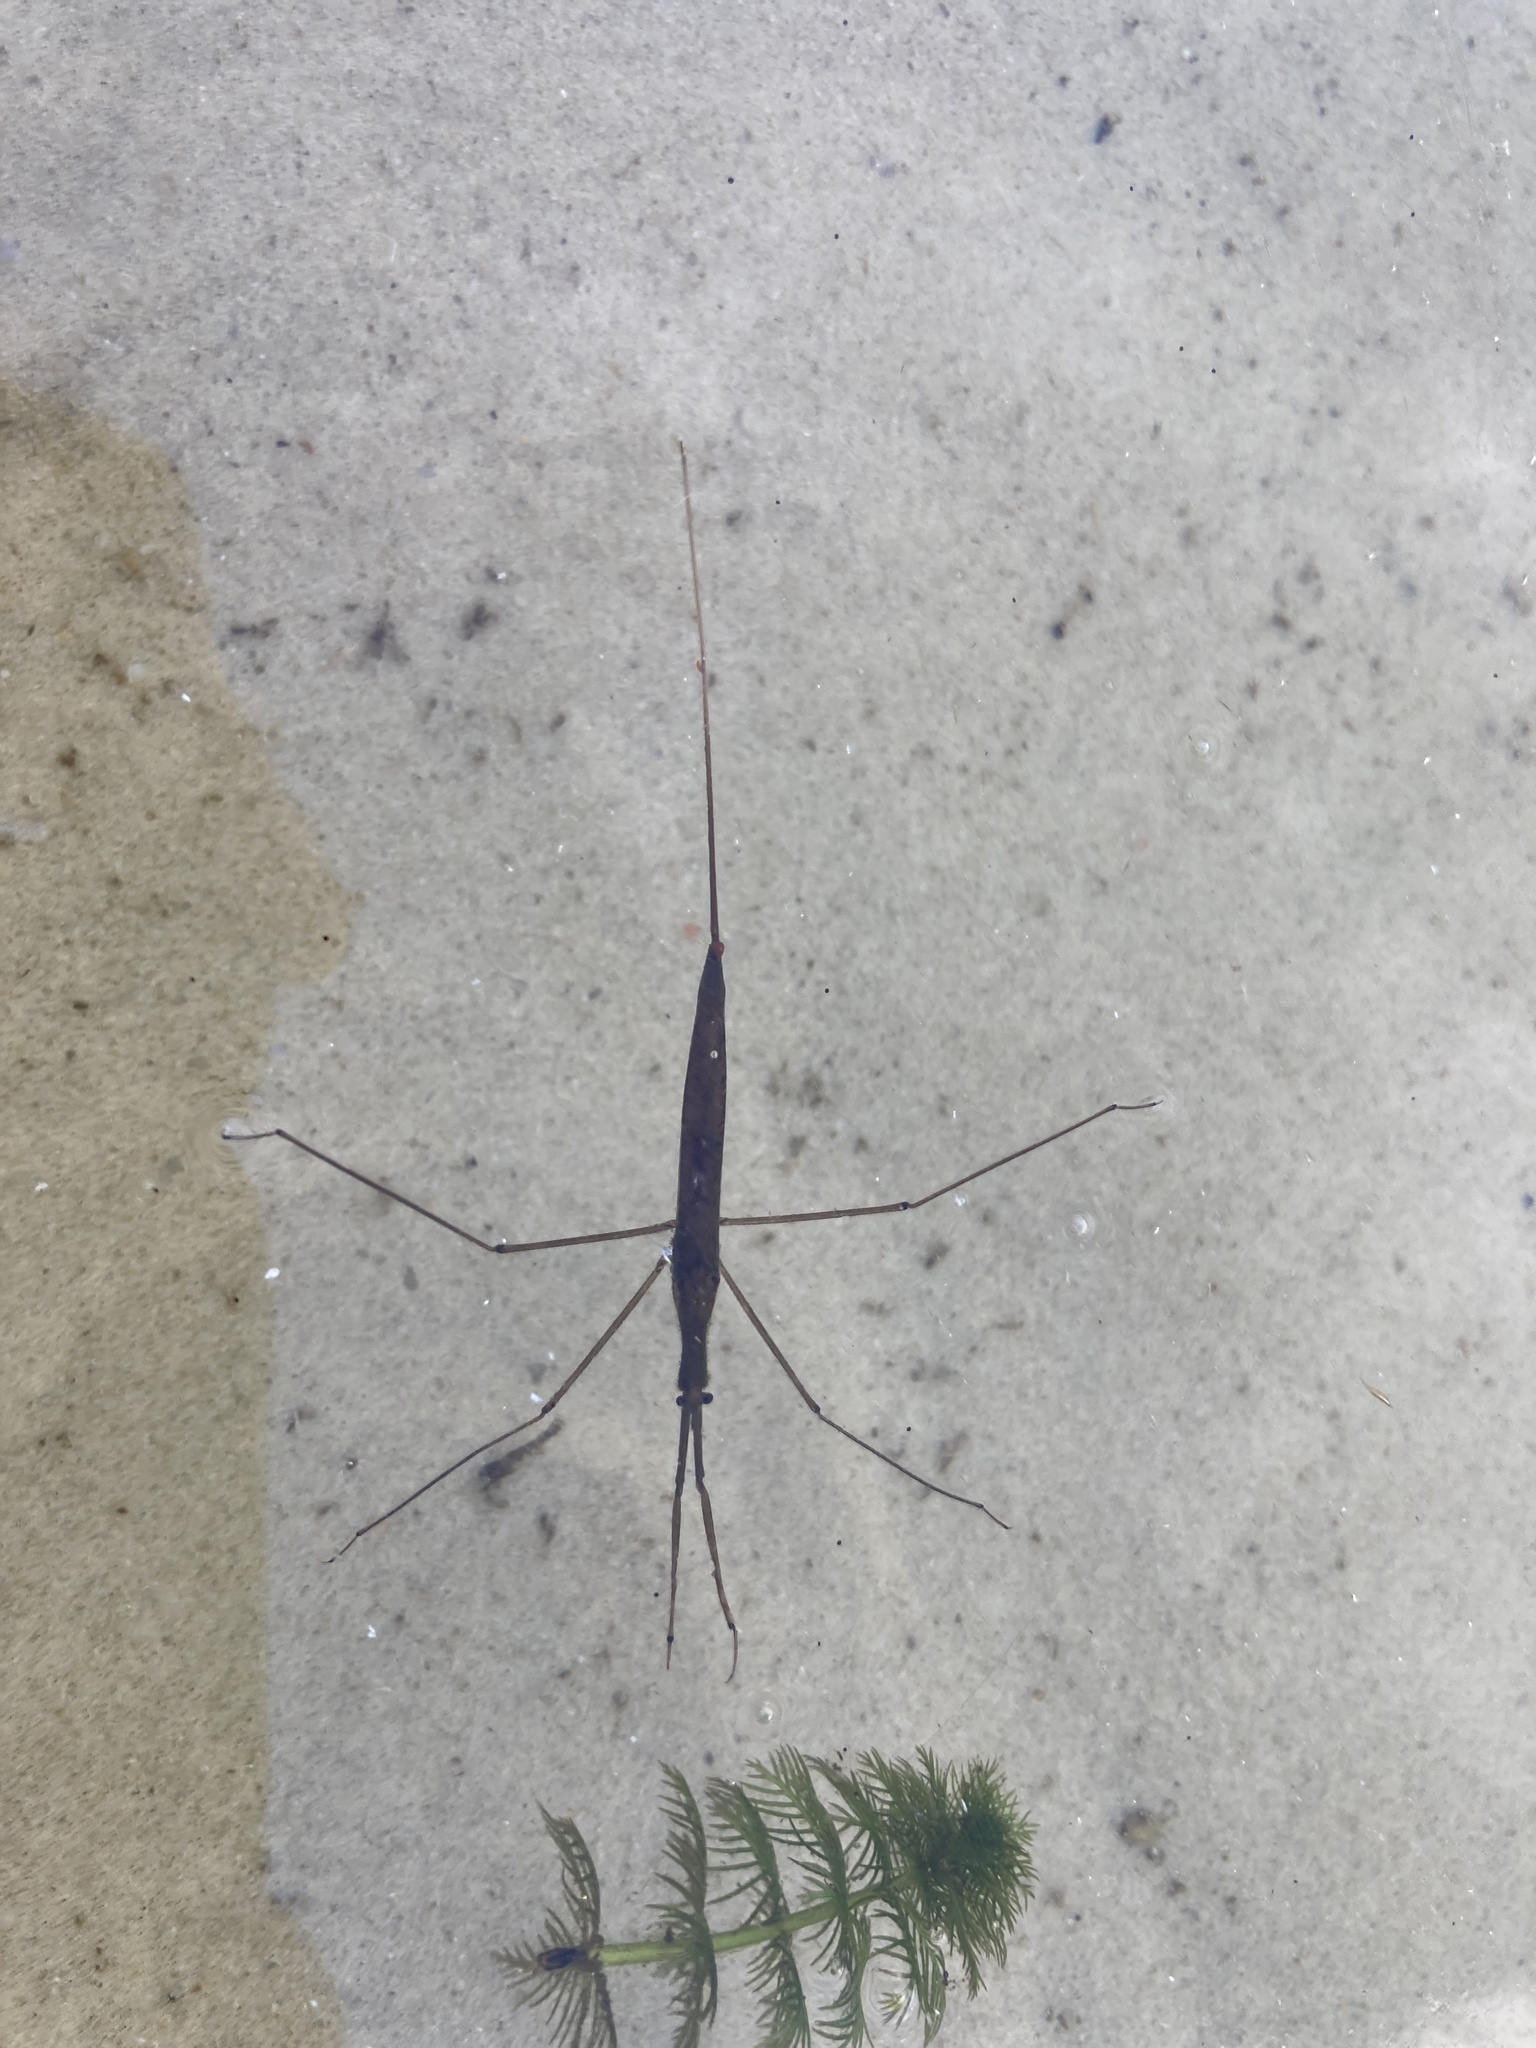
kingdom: Animalia
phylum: Arthropoda
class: Insecta
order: Hemiptera
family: Nepidae
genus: Ranatra
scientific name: Ranatra linearis
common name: Water stick insect
